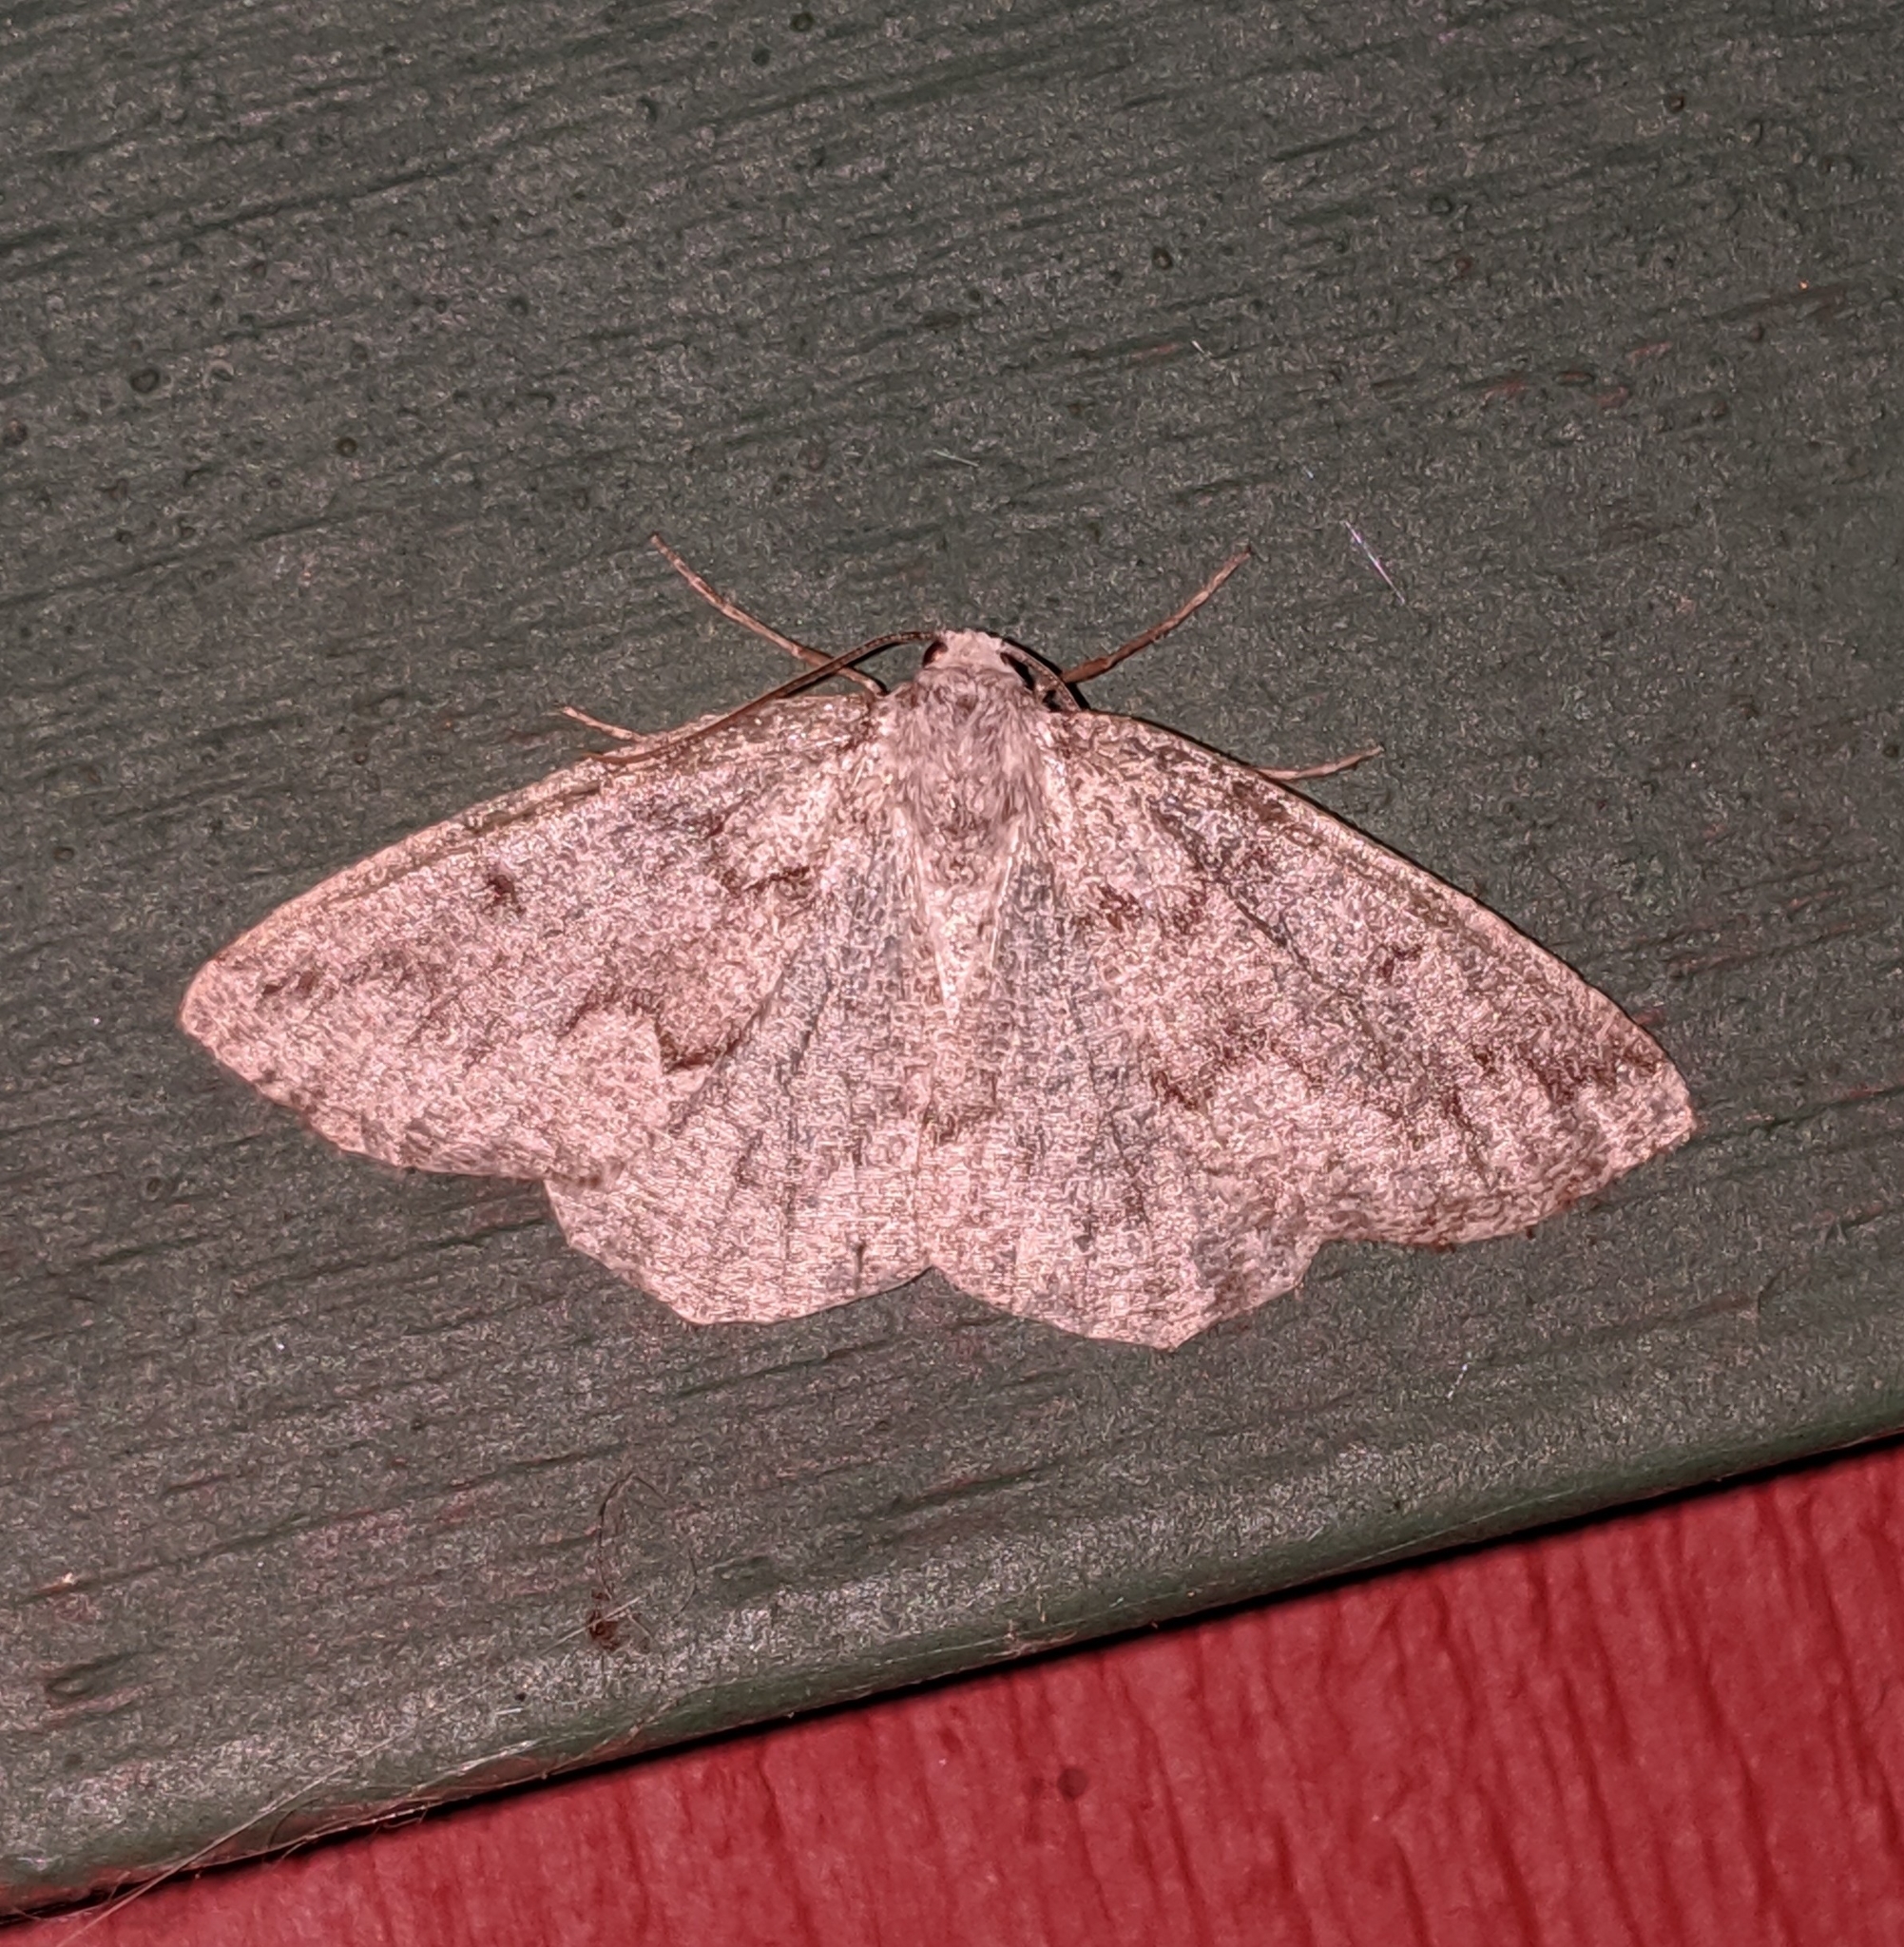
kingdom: Animalia
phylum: Arthropoda
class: Insecta
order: Lepidoptera
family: Geometridae
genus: Sabulodes
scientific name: Sabulodes
